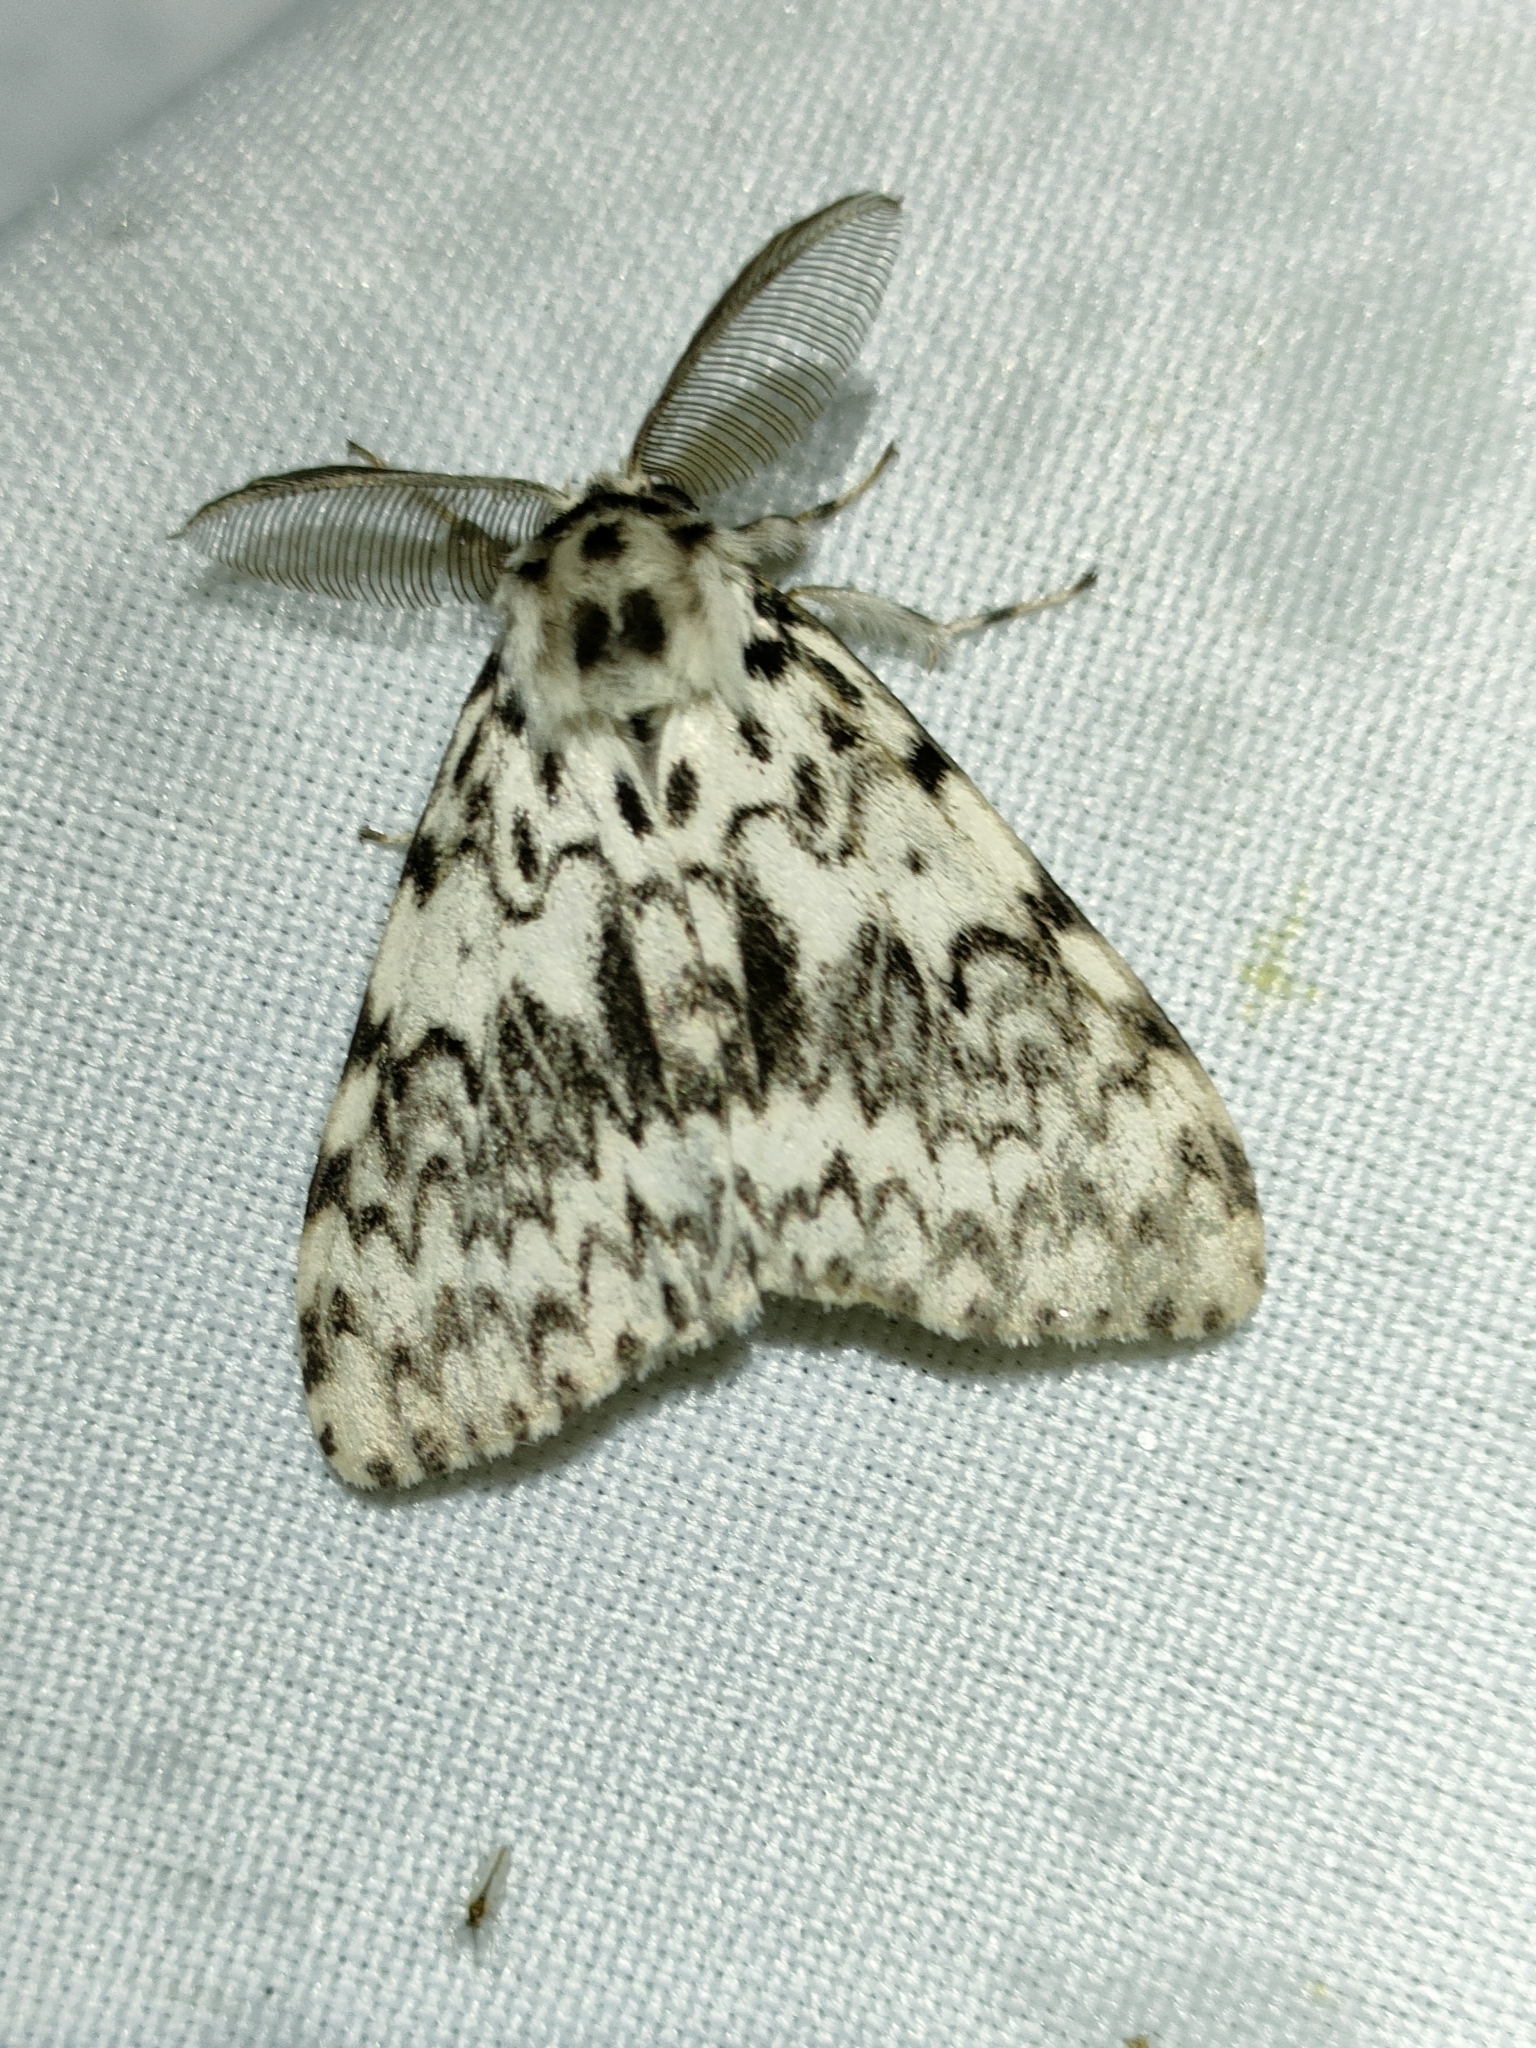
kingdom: Animalia
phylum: Arthropoda
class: Insecta
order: Lepidoptera
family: Erebidae
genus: Lymantria
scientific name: Lymantria monacha
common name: Black arches
